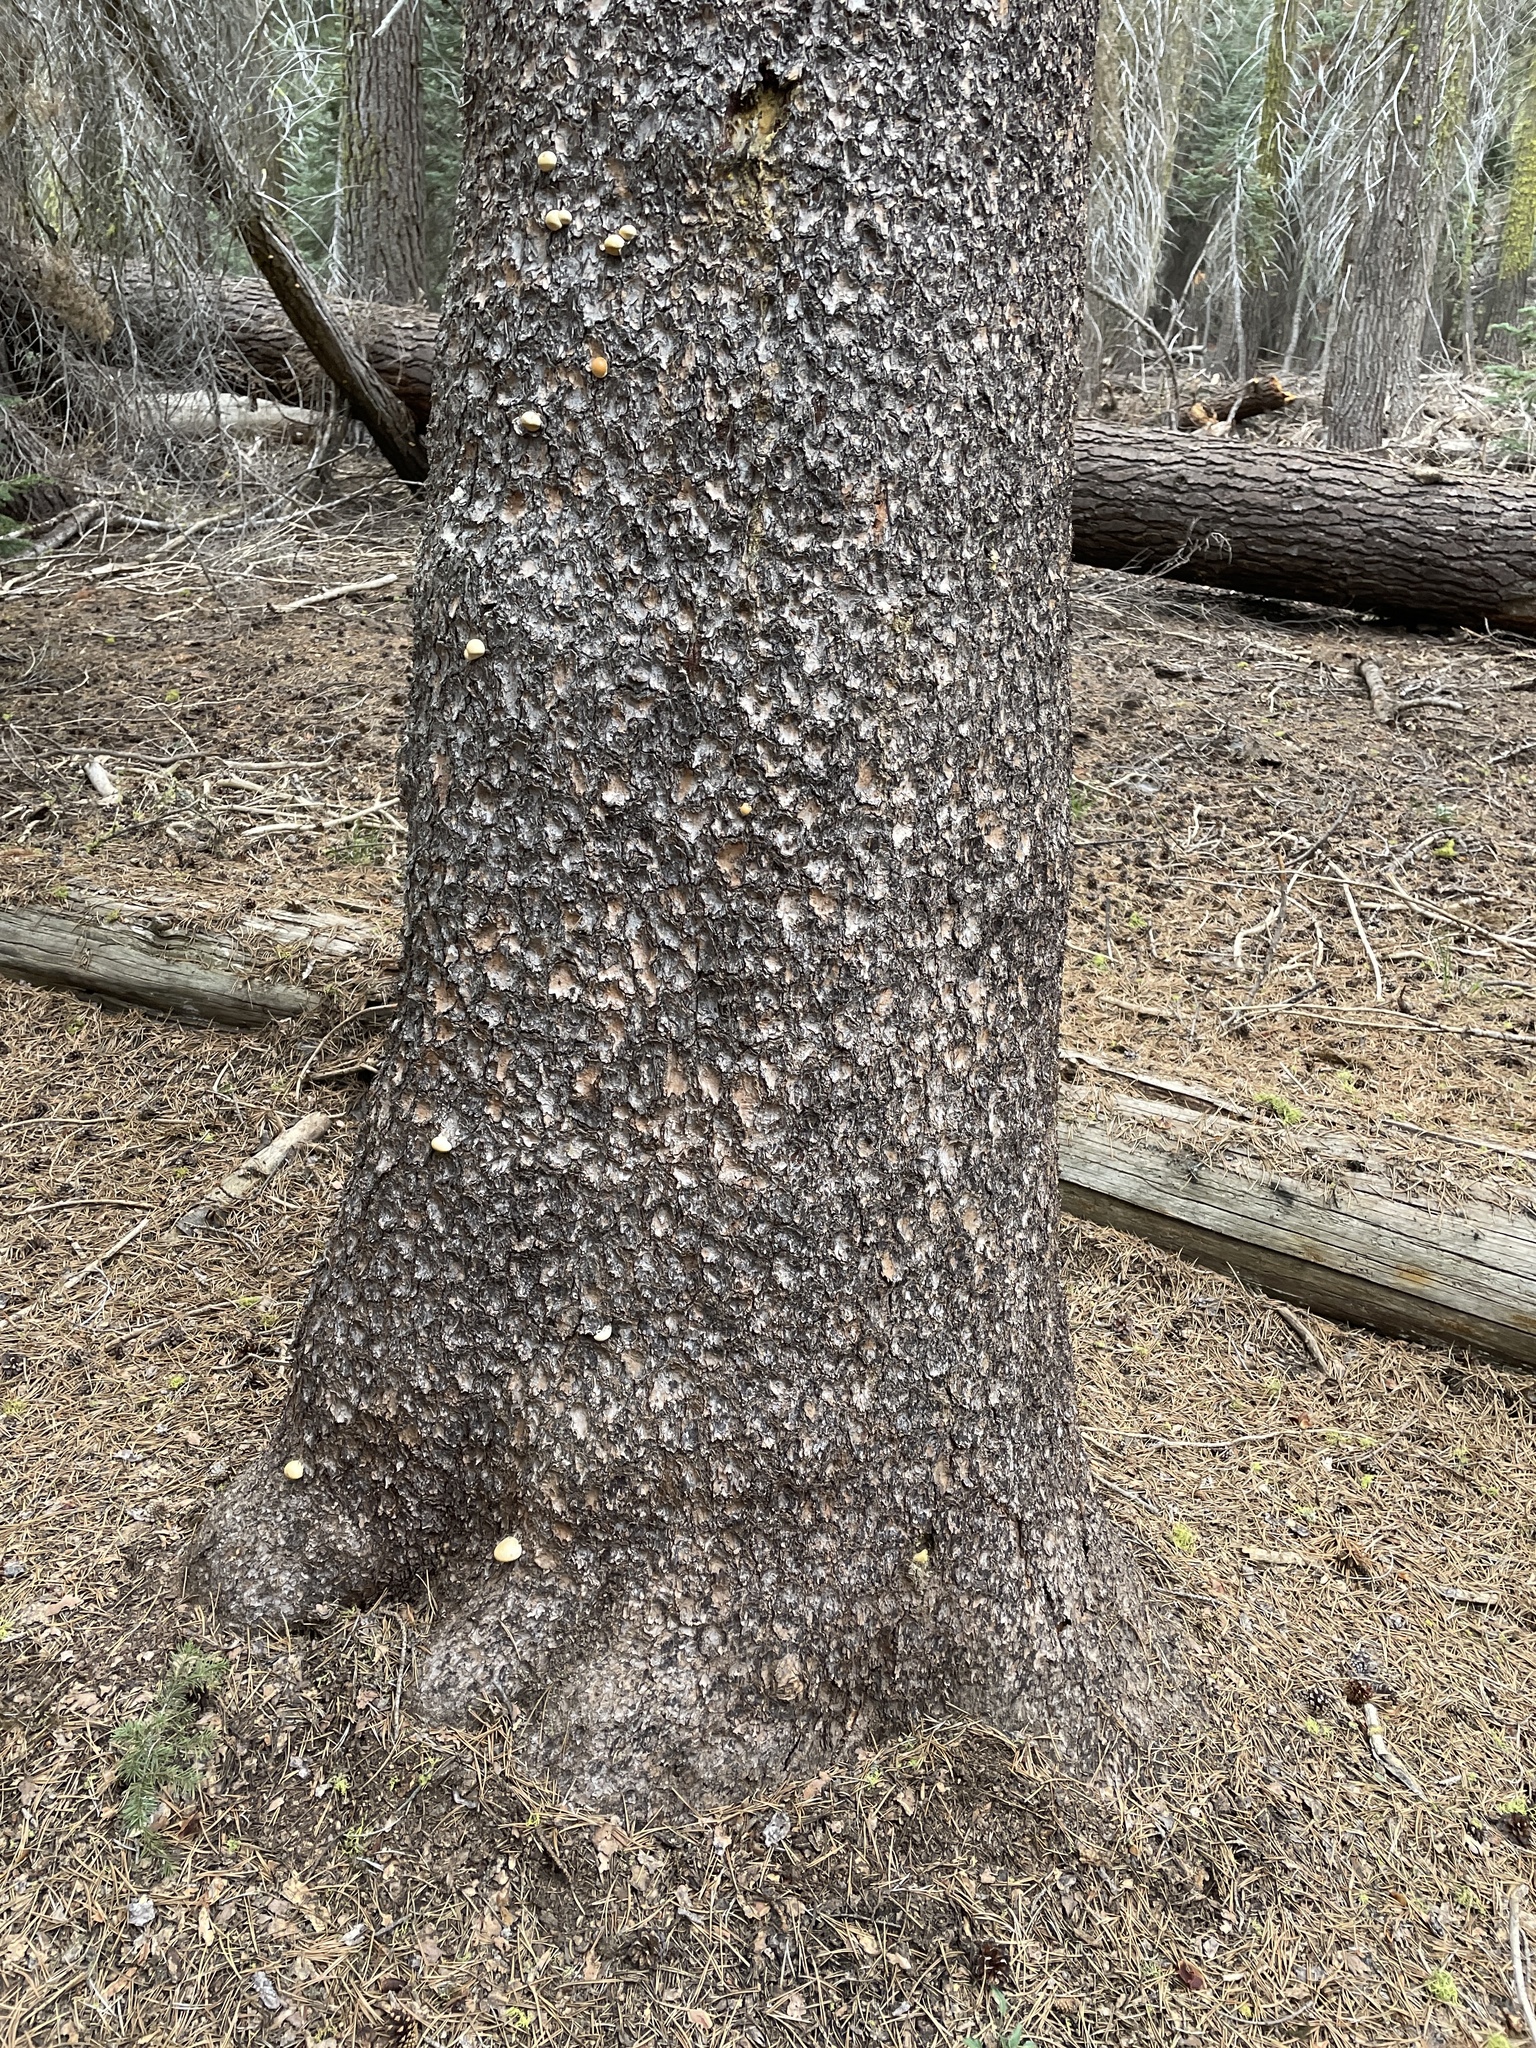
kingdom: Fungi
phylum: Basidiomycota
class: Agaricomycetes
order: Polyporales
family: Polyporaceae
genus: Cryptoporus
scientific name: Cryptoporus volvatus
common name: Veiled polypore
